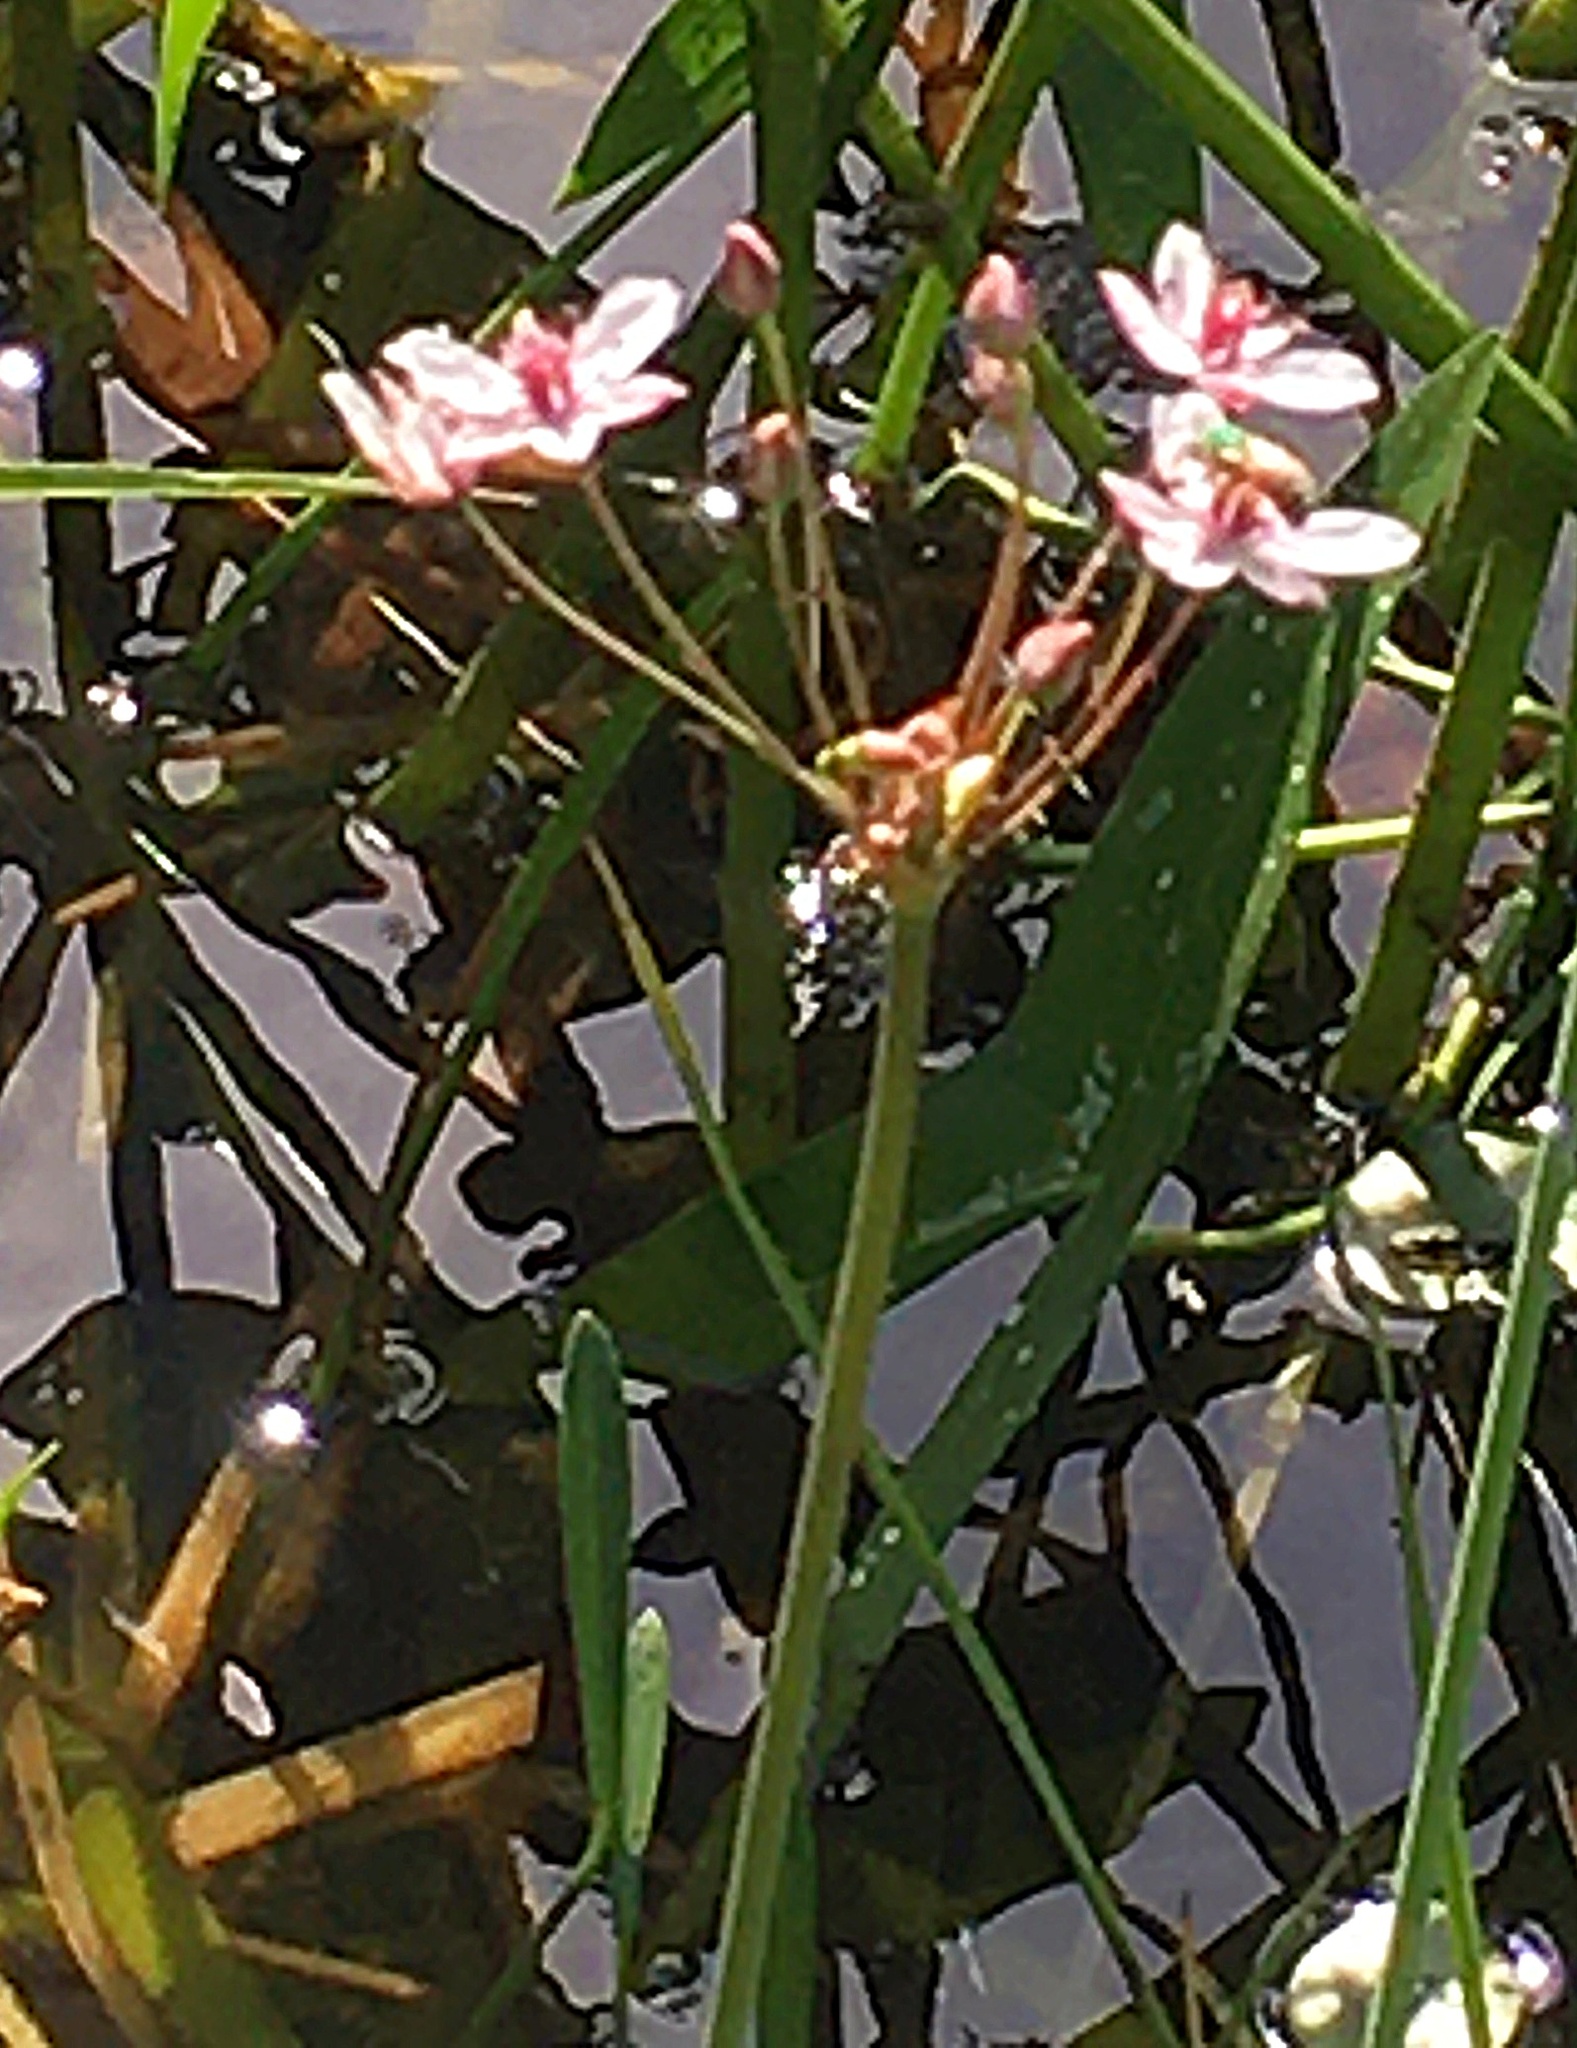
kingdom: Plantae
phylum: Tracheophyta
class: Liliopsida
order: Alismatales
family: Butomaceae
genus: Butomus
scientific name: Butomus umbellatus
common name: Flowering-rush
